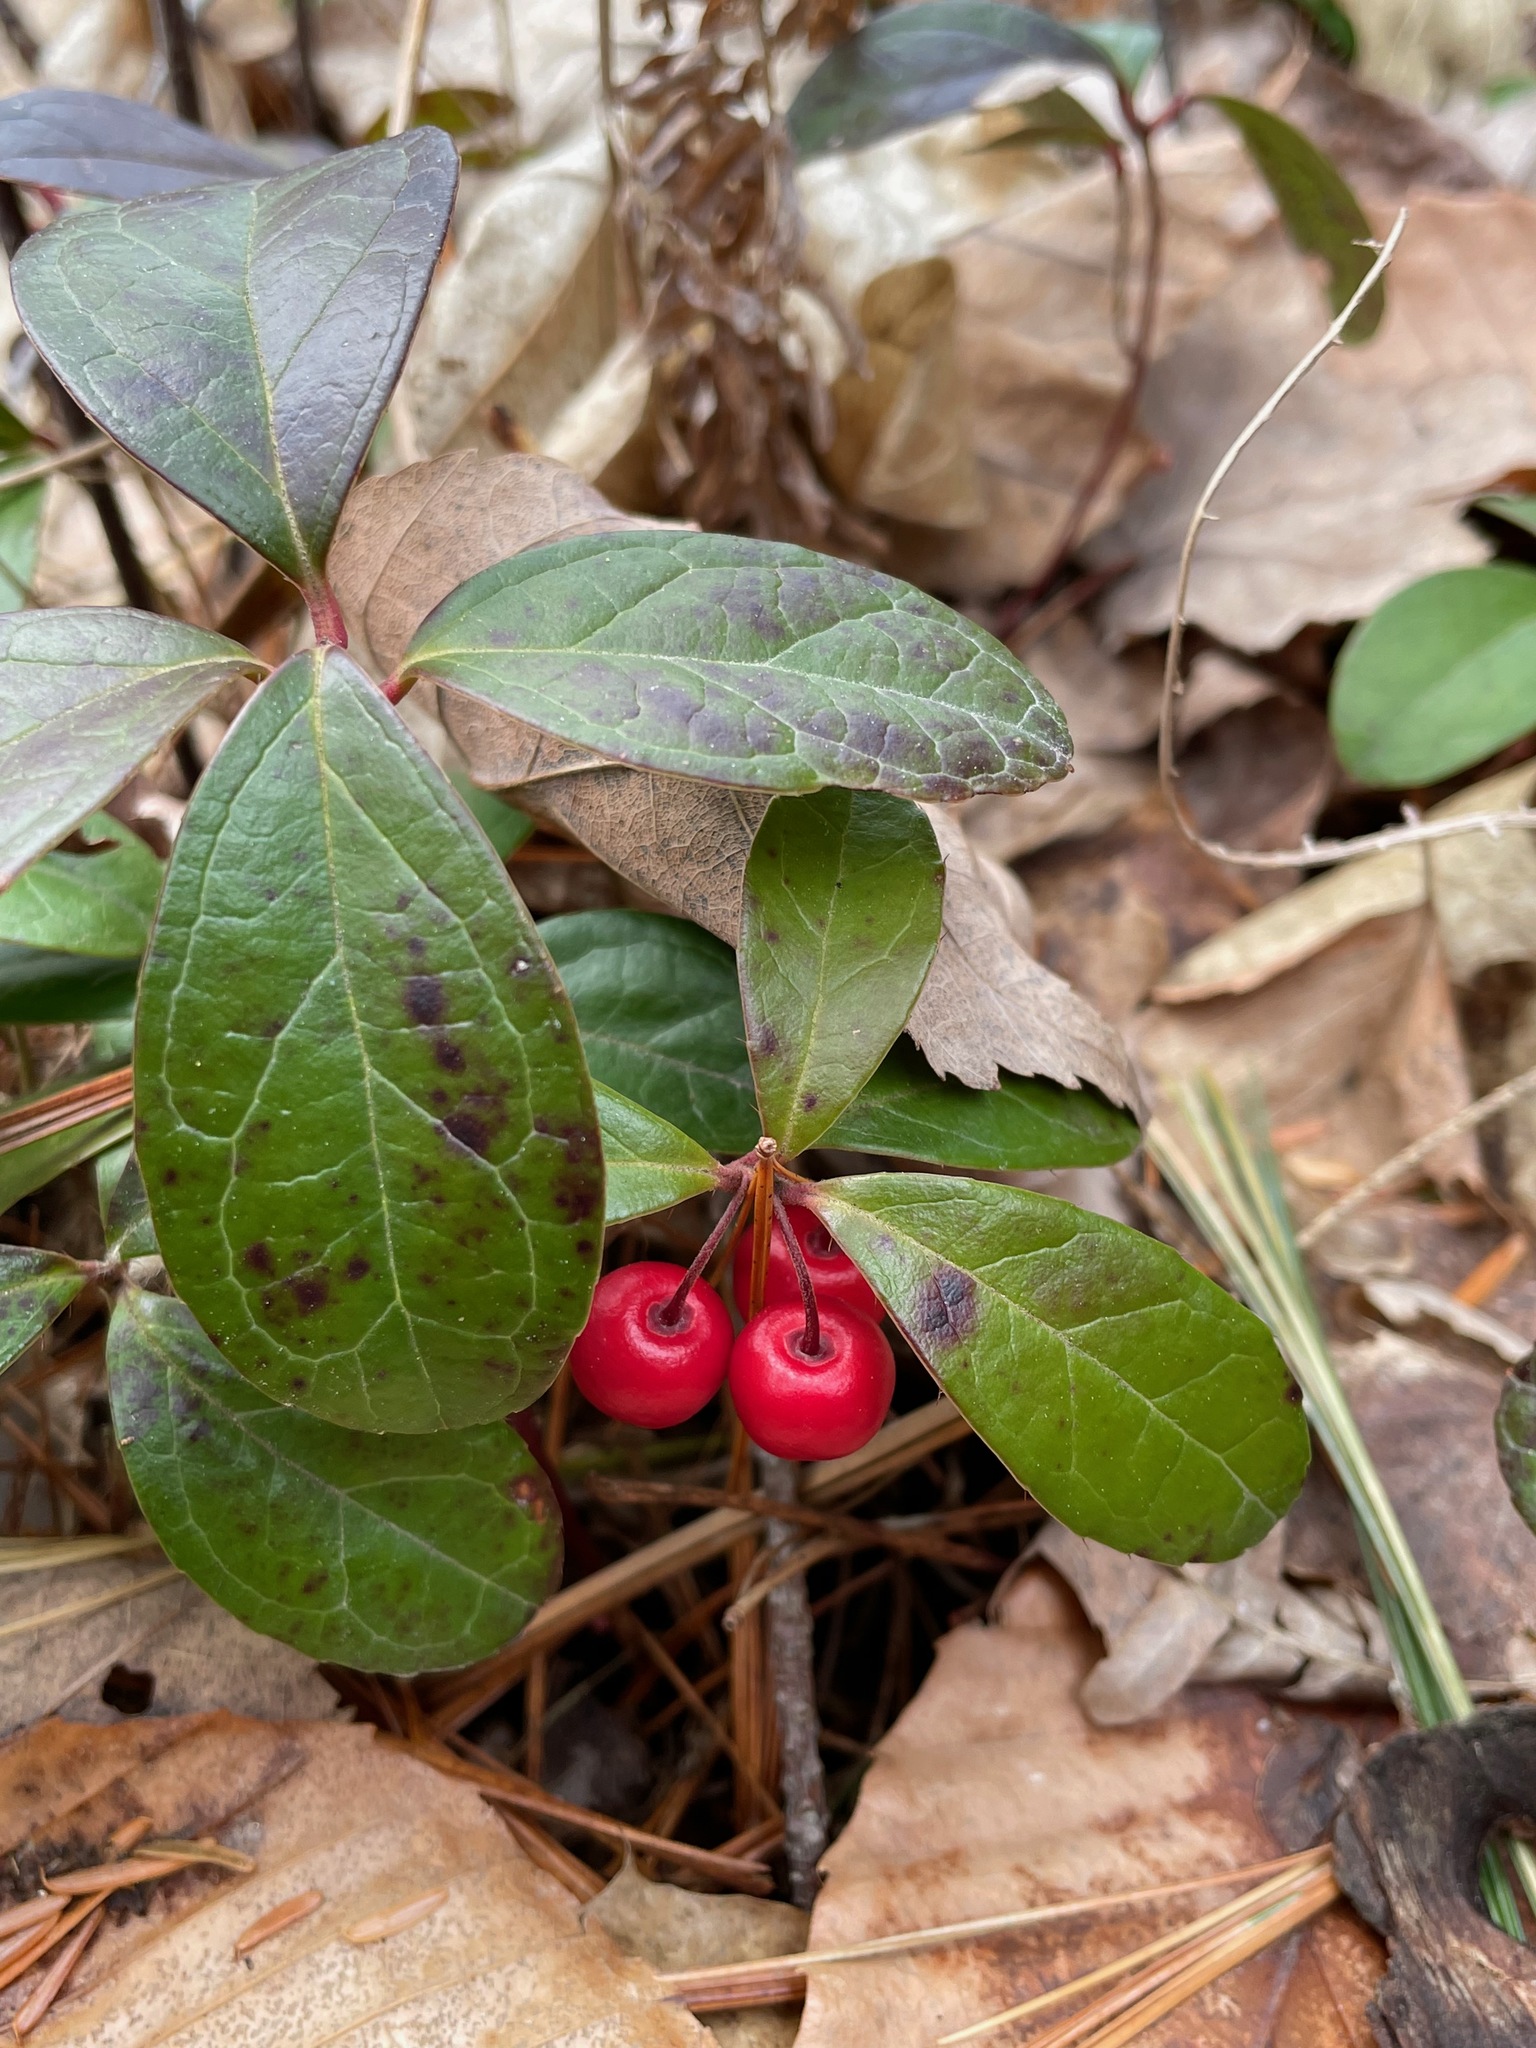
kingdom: Plantae
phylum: Tracheophyta
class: Magnoliopsida
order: Ericales
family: Ericaceae
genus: Gaultheria
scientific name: Gaultheria procumbens
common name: Checkerberry
